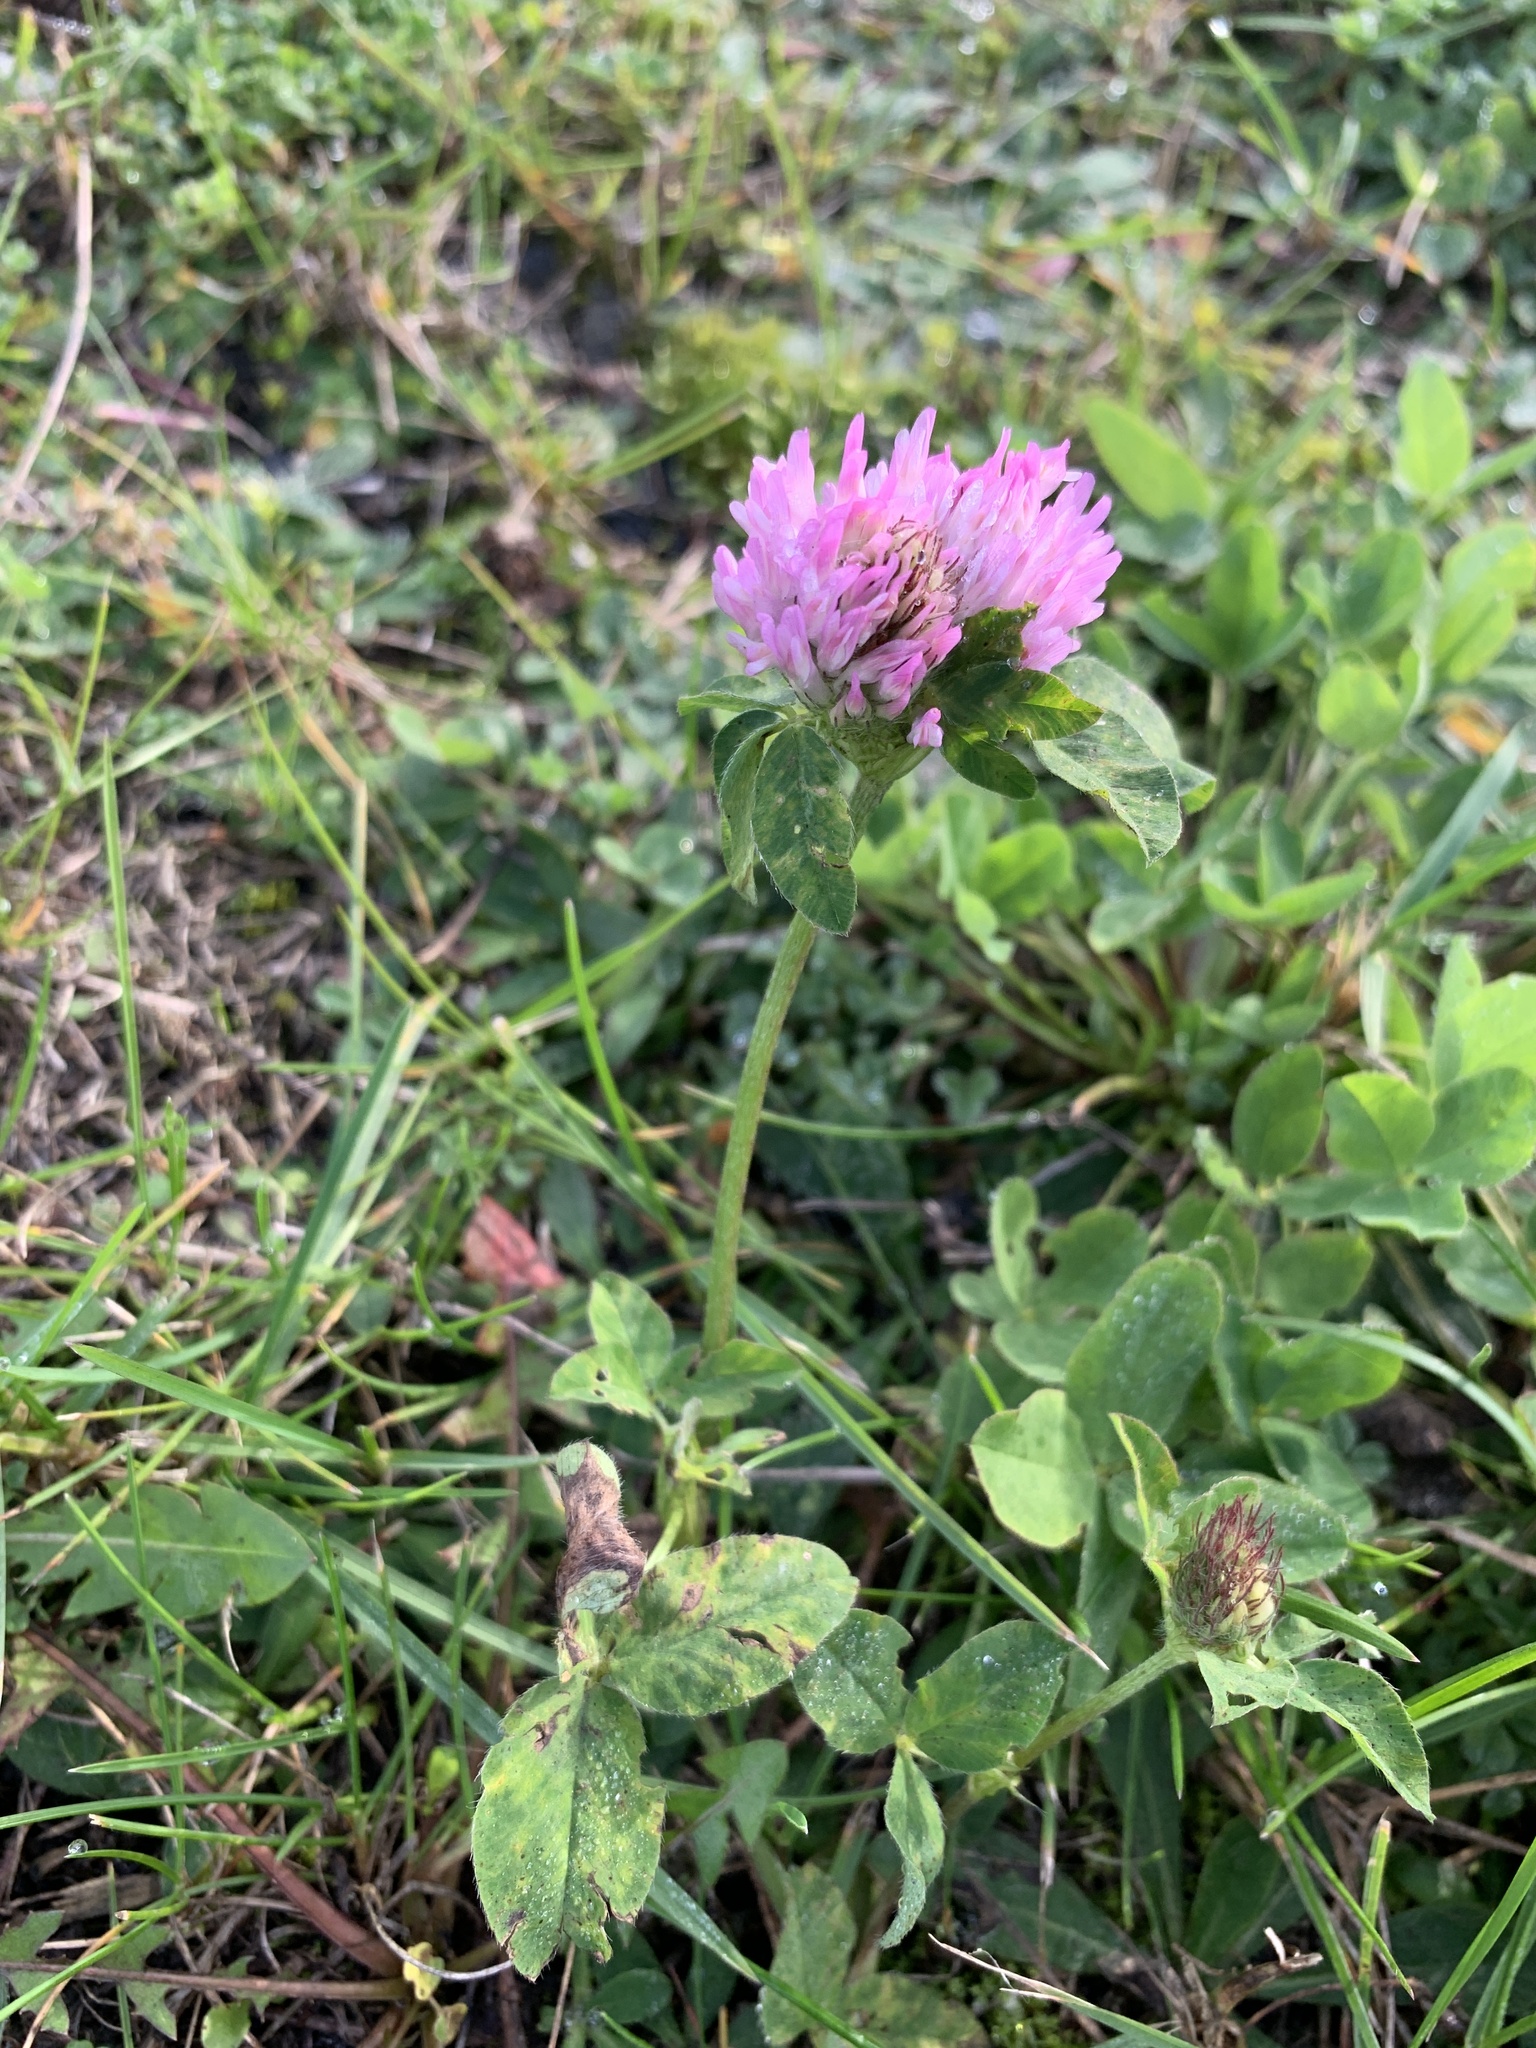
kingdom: Plantae
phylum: Tracheophyta
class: Magnoliopsida
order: Fabales
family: Fabaceae
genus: Trifolium
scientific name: Trifolium pratense
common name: Red clover
